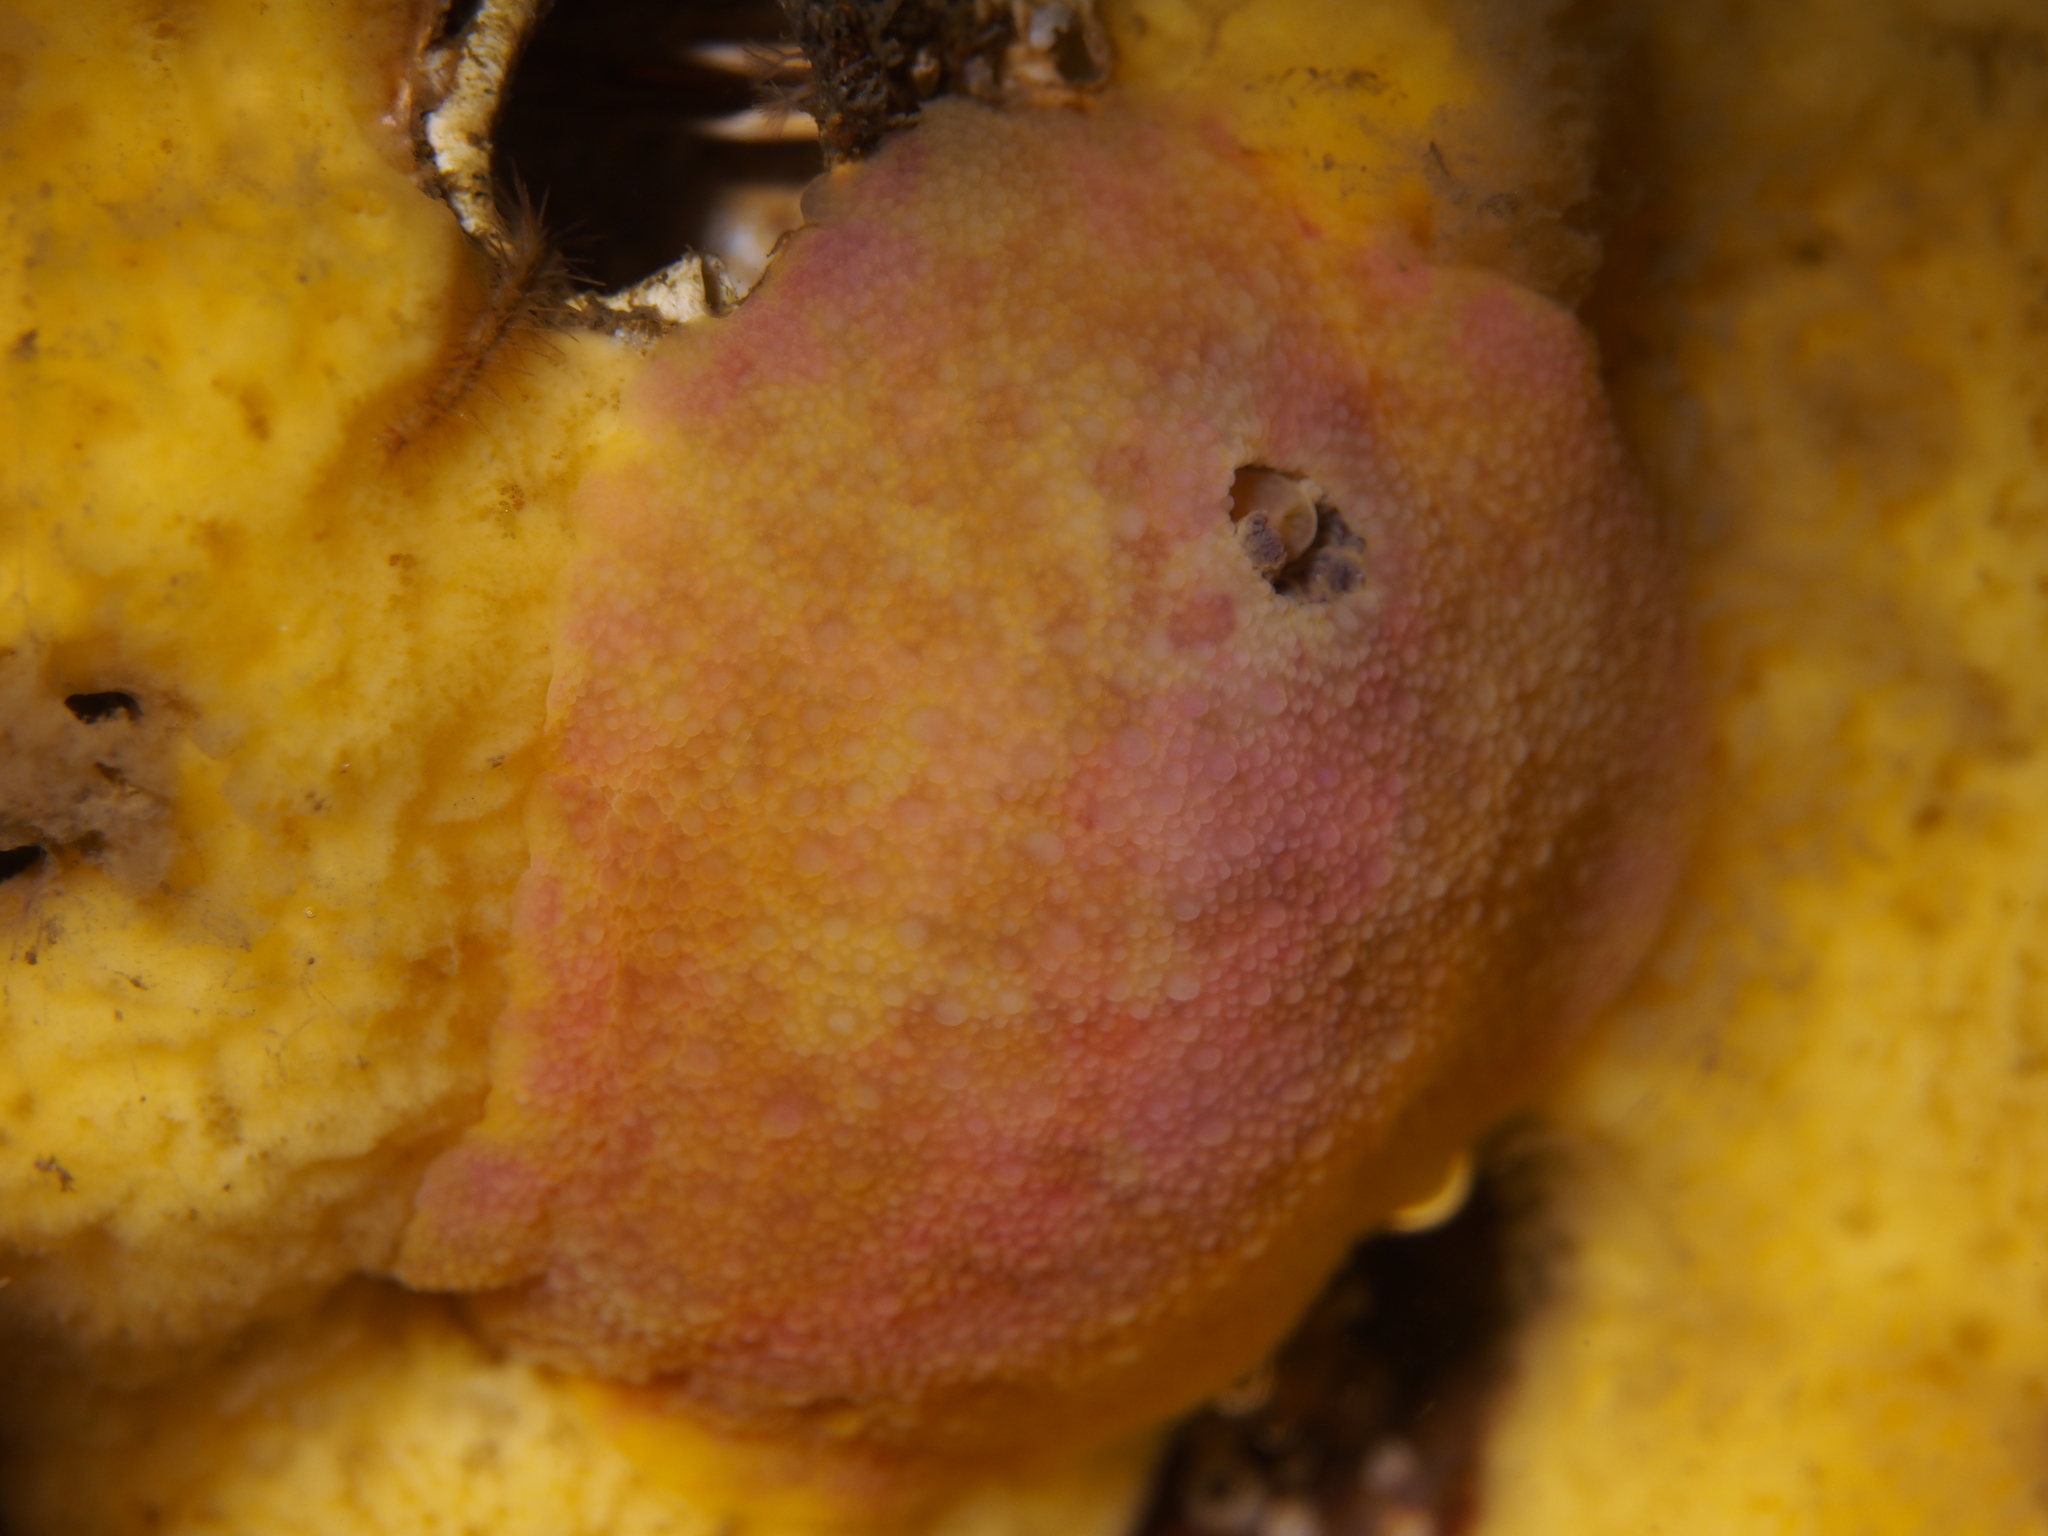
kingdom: Animalia
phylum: Mollusca
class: Gastropoda
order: Nudibranchia
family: Dorididae
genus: Doris
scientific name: Doris pseudoargus
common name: Sea lemon
